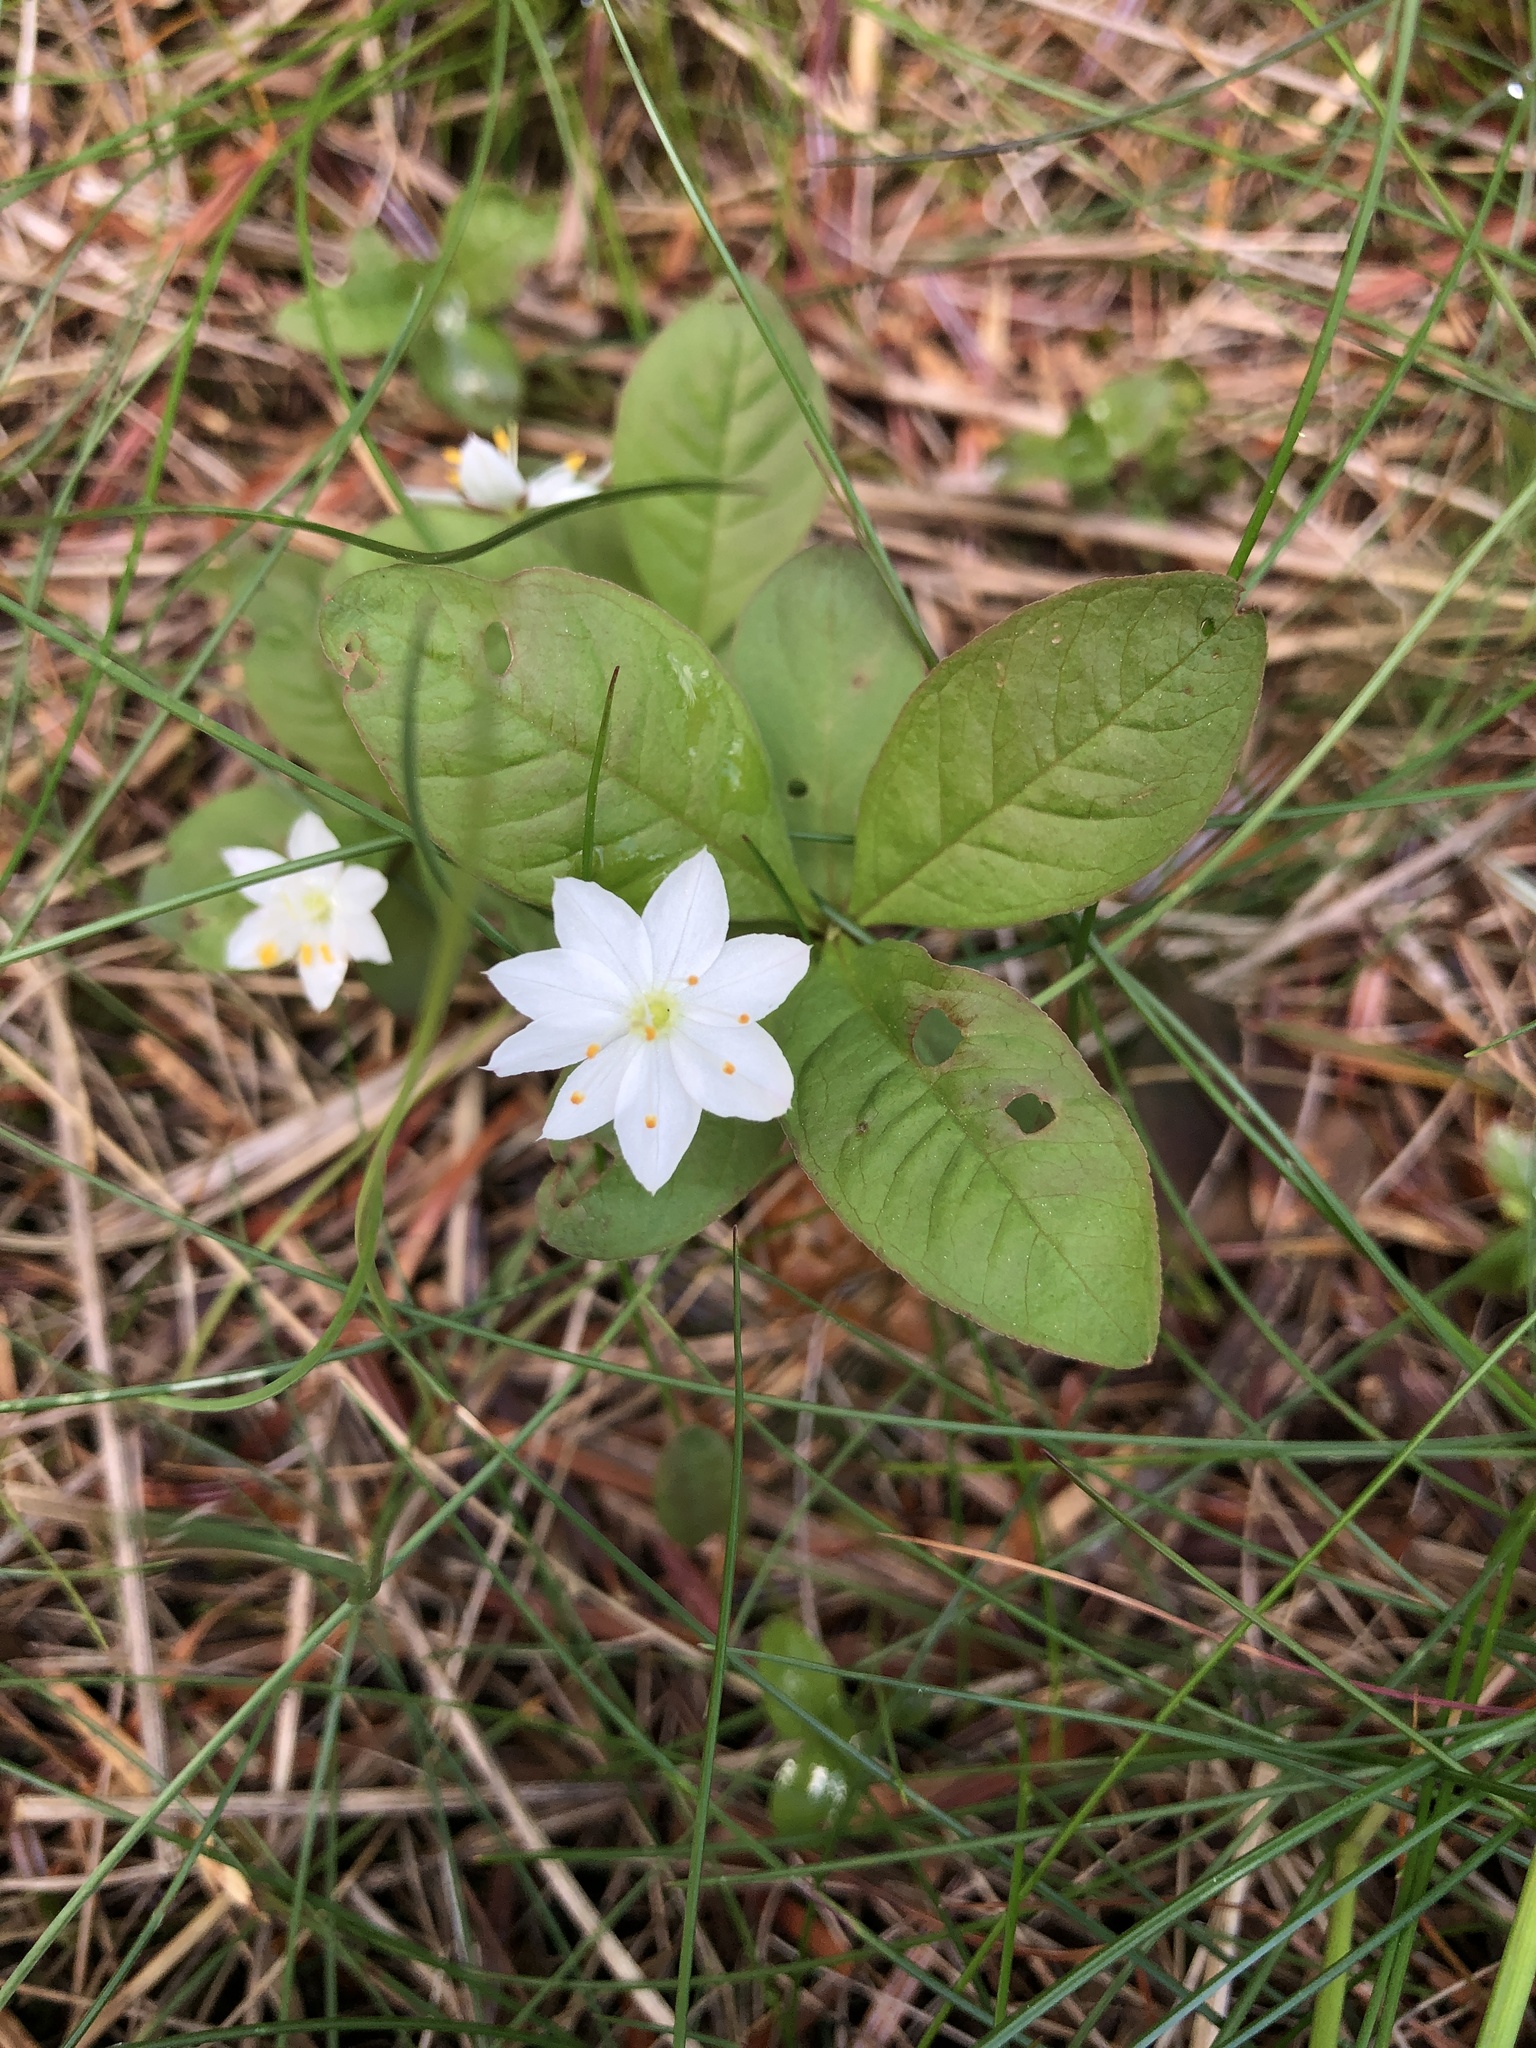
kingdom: Plantae
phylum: Tracheophyta
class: Magnoliopsida
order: Ericales
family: Primulaceae
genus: Lysimachia
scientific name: Lysimachia europaea
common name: Arctic starflower
